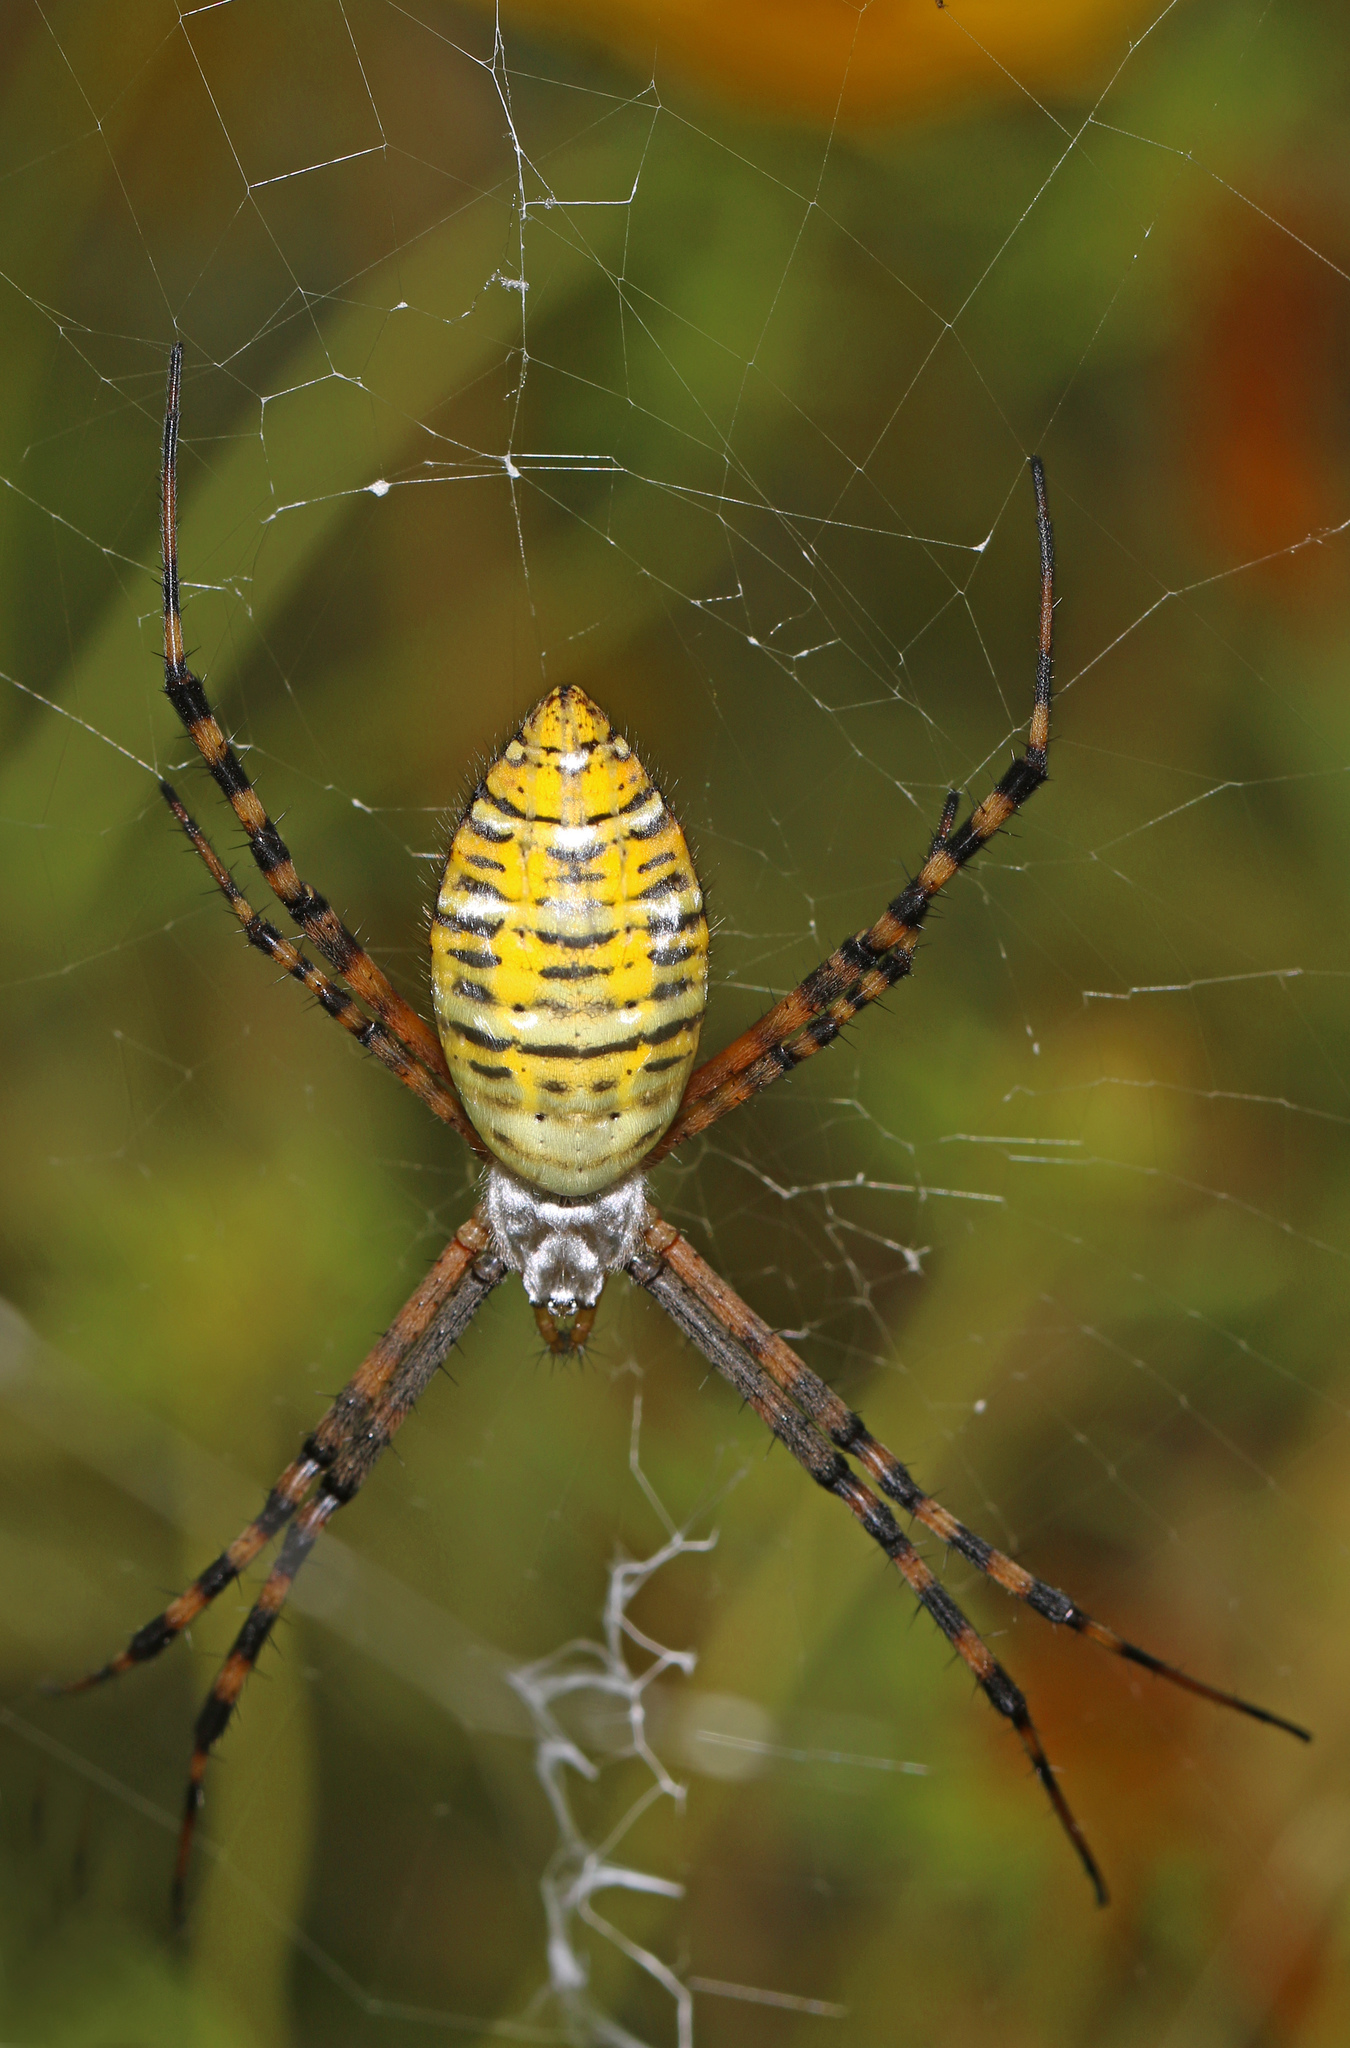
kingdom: Animalia
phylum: Arthropoda
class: Arachnida
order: Araneae
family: Araneidae
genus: Argiope
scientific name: Argiope trifasciata
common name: Banded garden spider
